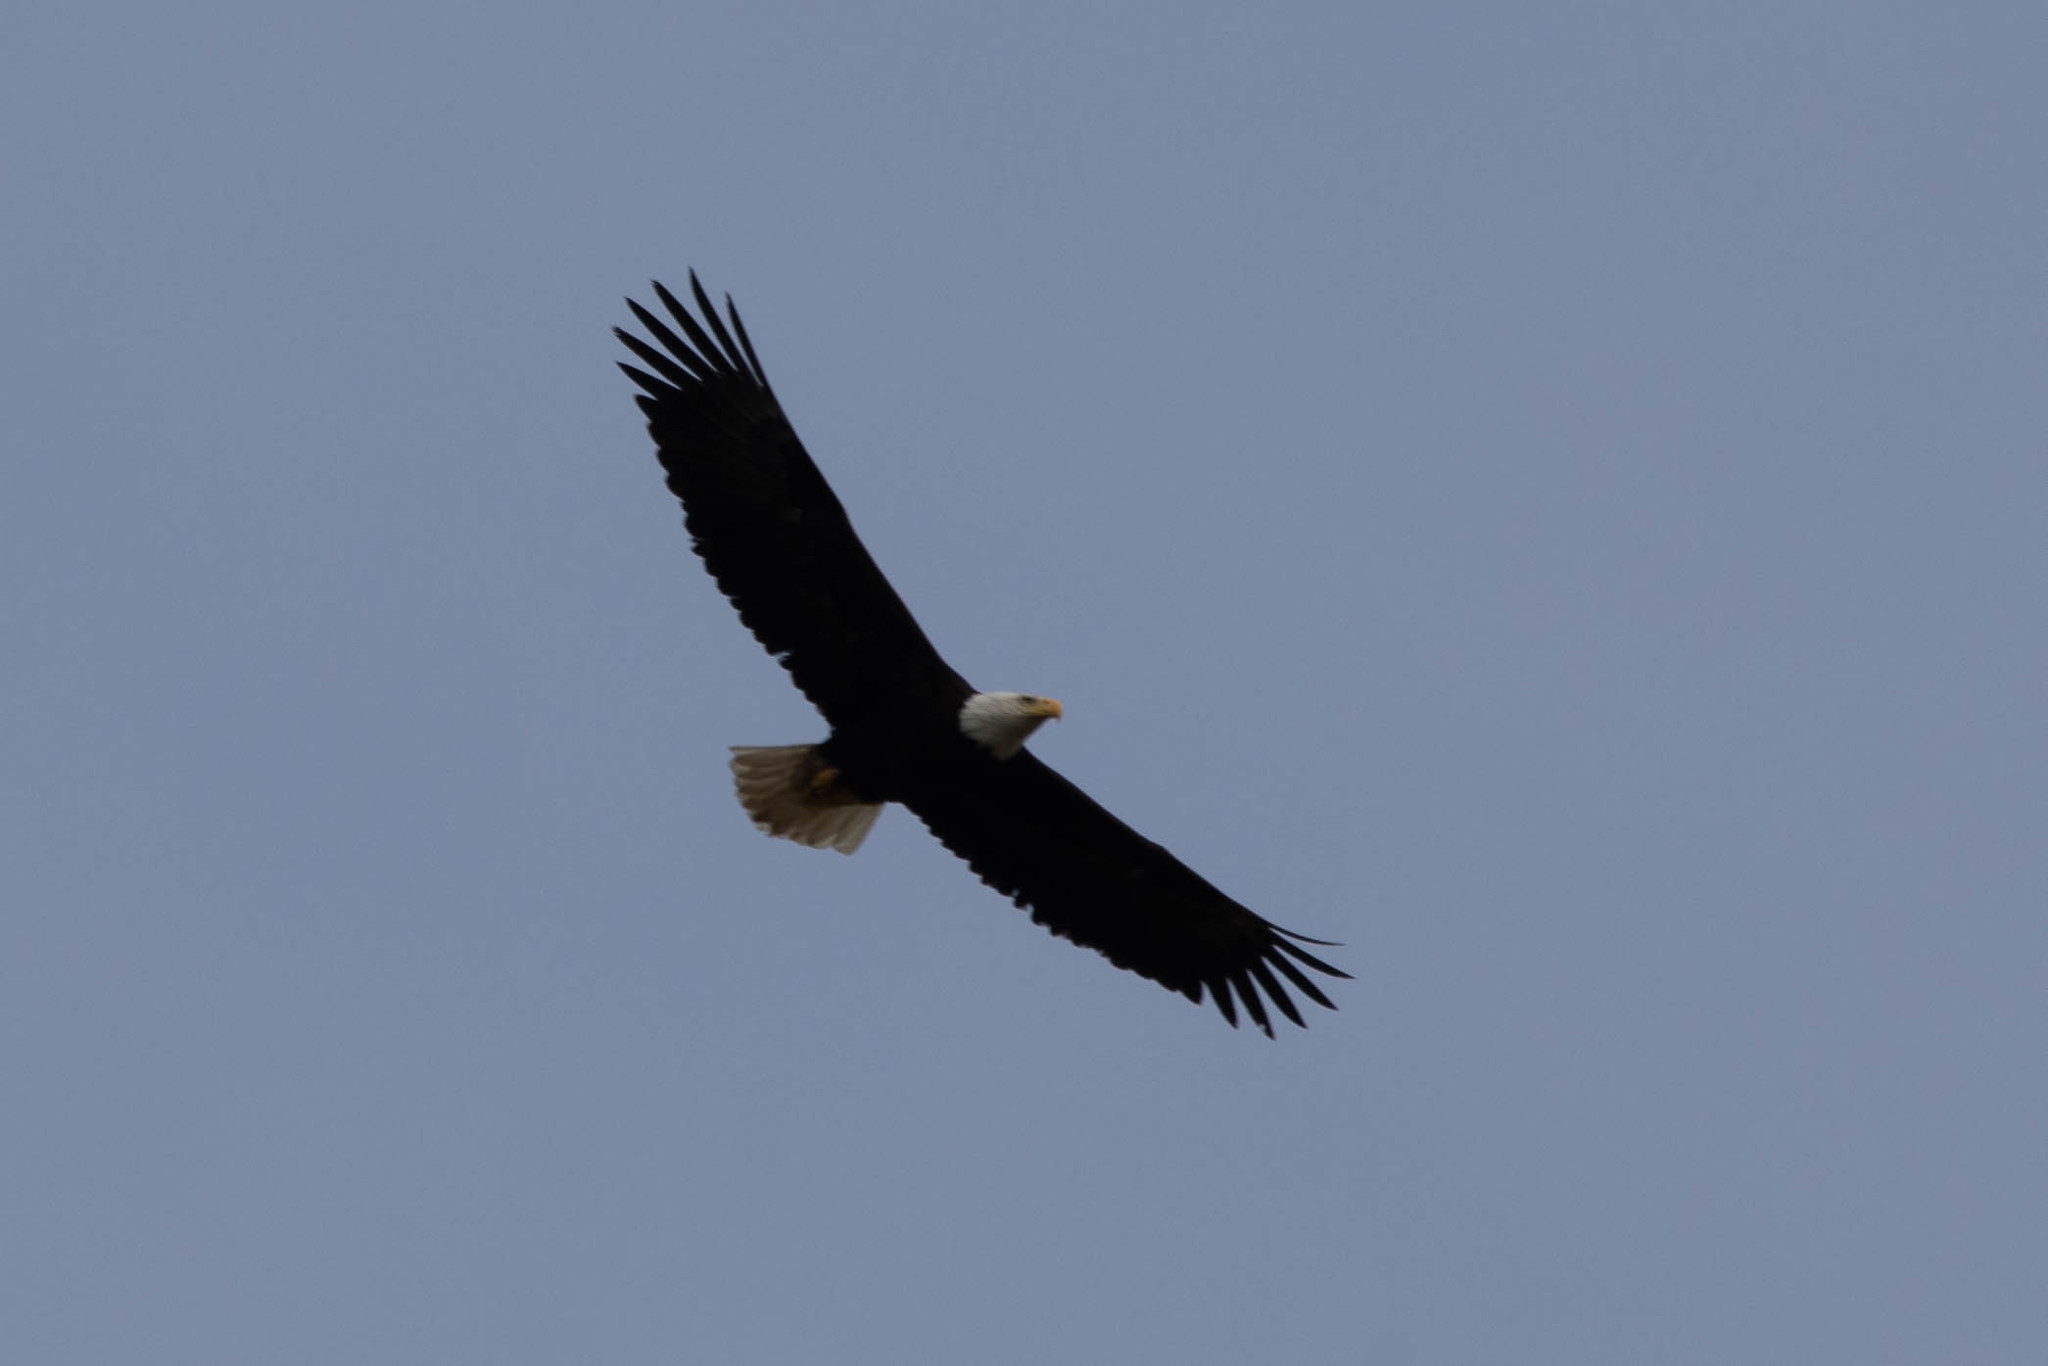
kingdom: Animalia
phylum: Chordata
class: Aves
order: Accipitriformes
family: Accipitridae
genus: Haliaeetus
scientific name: Haliaeetus leucocephalus
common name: Bald eagle
